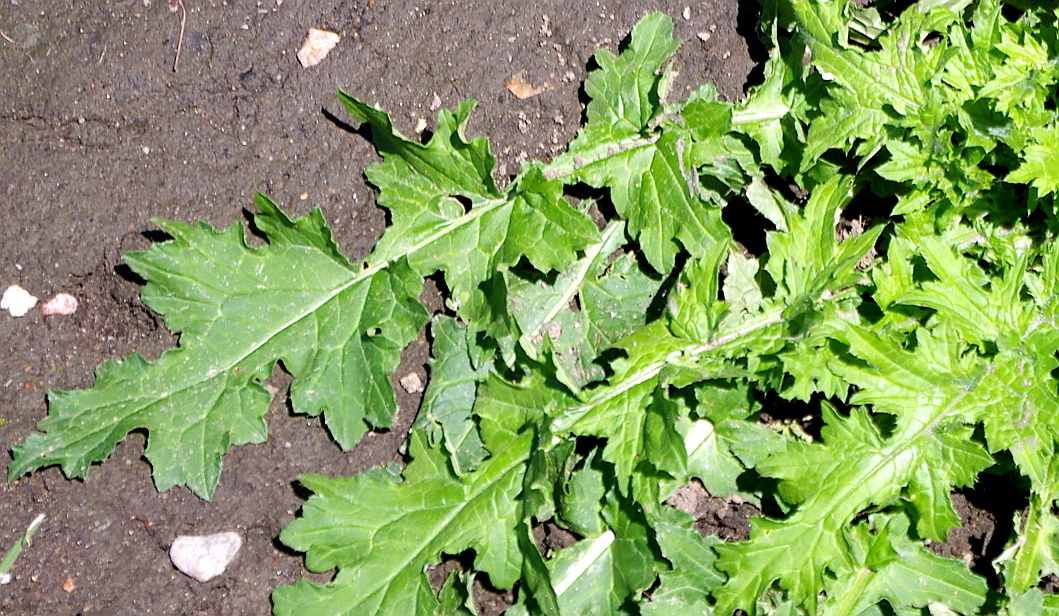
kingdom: Plantae
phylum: Tracheophyta
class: Magnoliopsida
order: Asterales
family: Asteraceae
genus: Carduus
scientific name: Carduus crispus
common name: Welted thistle
